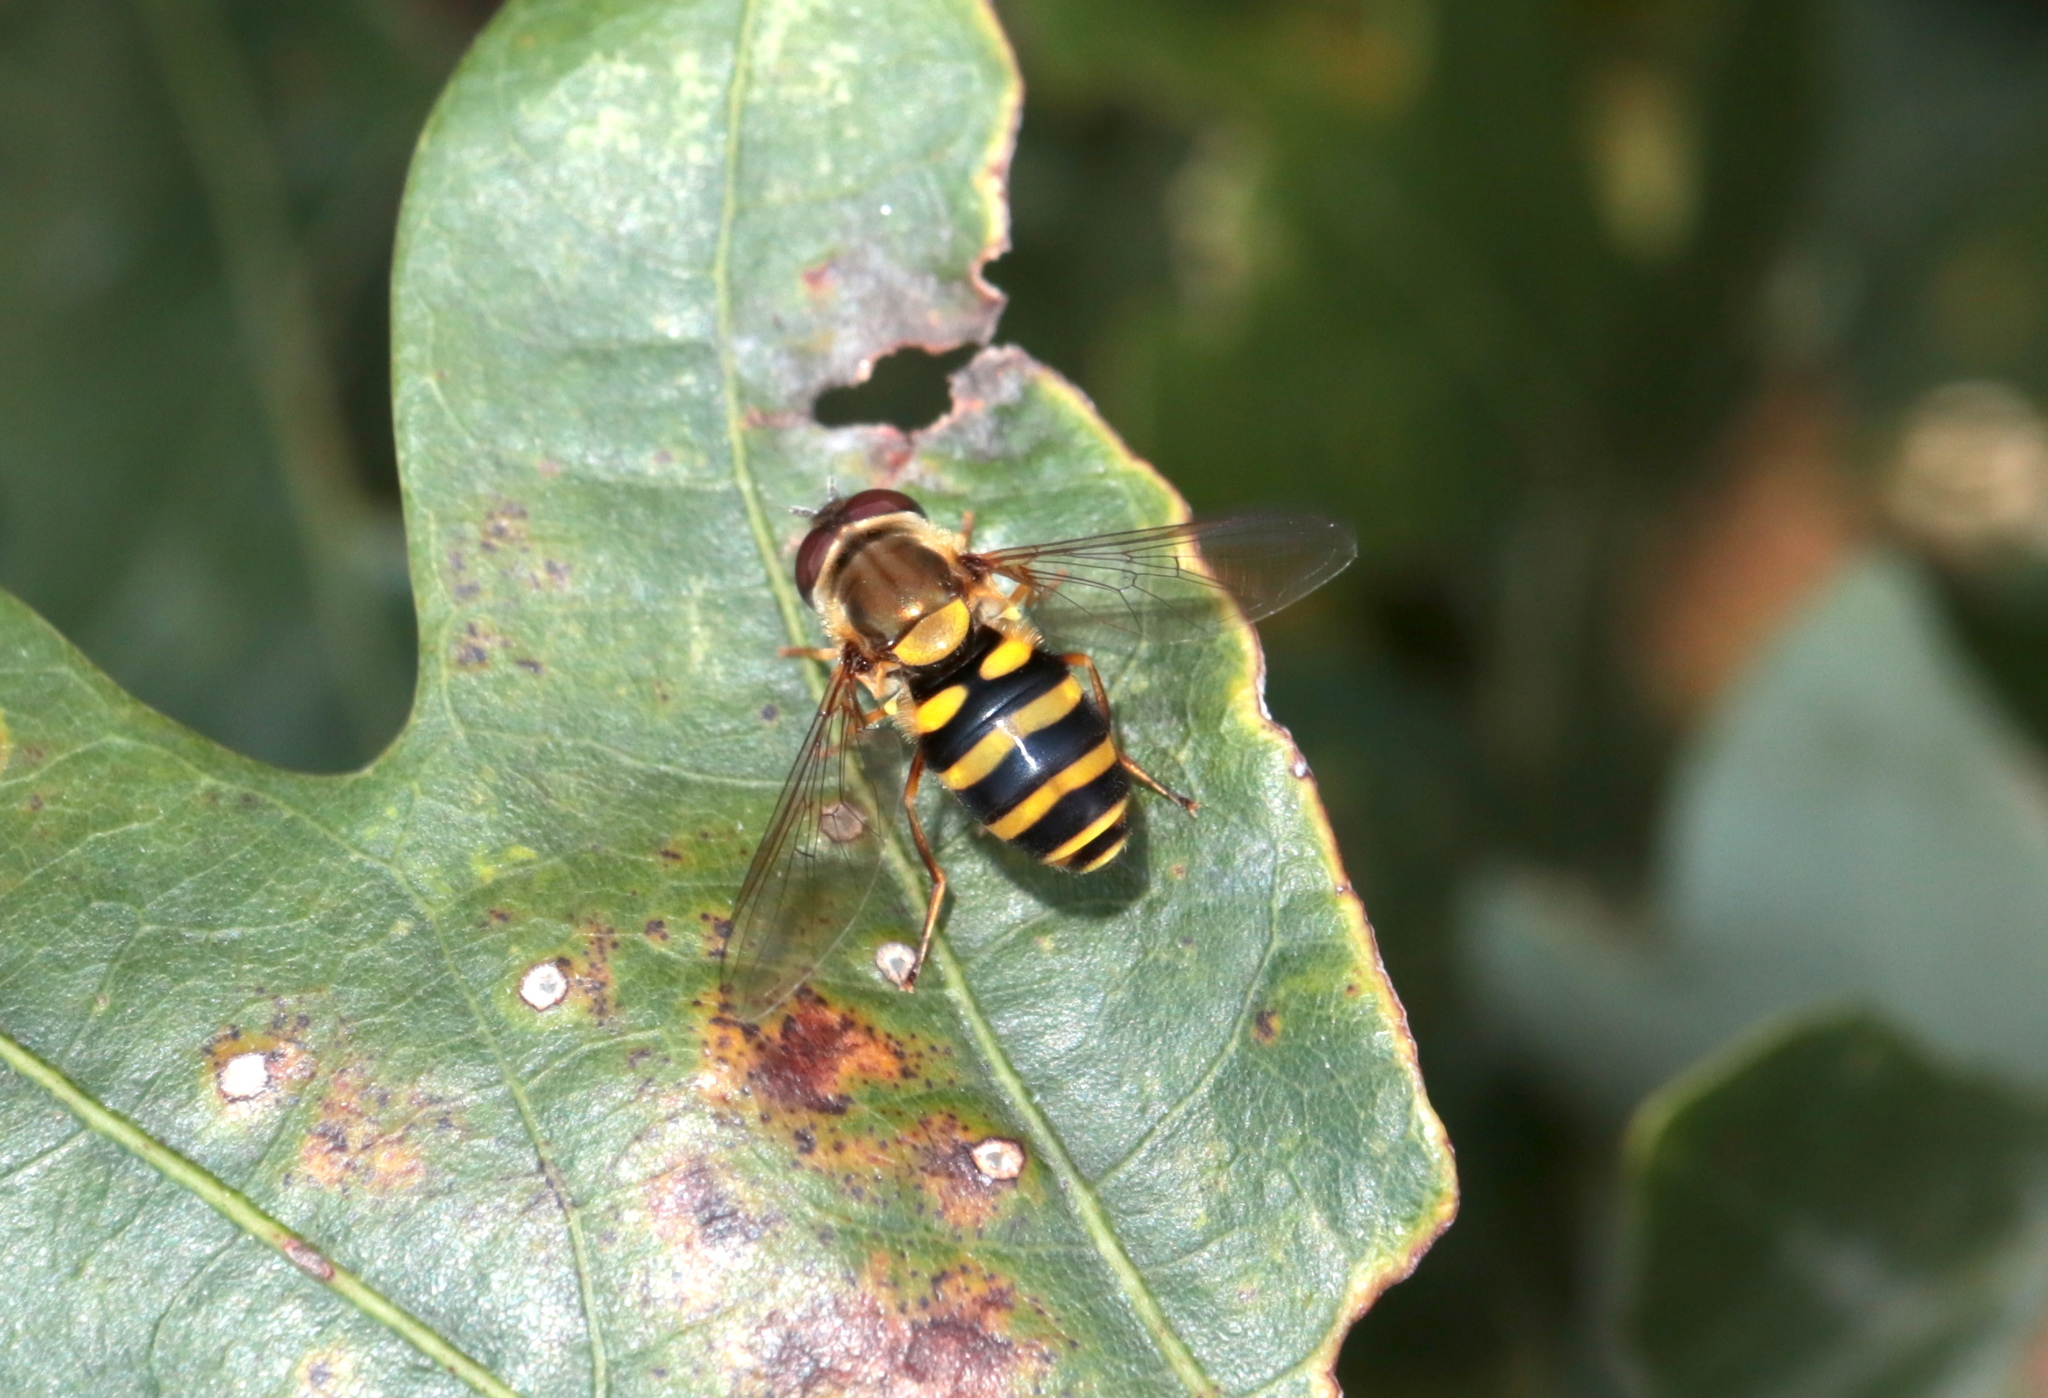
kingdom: Animalia
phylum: Arthropoda
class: Insecta
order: Diptera
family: Syrphidae
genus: Syrphus
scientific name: Syrphus
